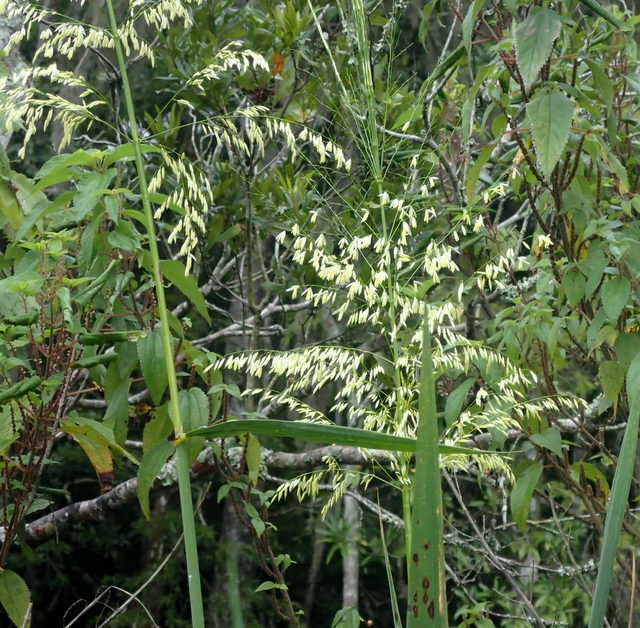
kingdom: Plantae
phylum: Tracheophyta
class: Liliopsida
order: Poales
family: Poaceae
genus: Zizania
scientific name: Zizania aquatica
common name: Annual wildrice
